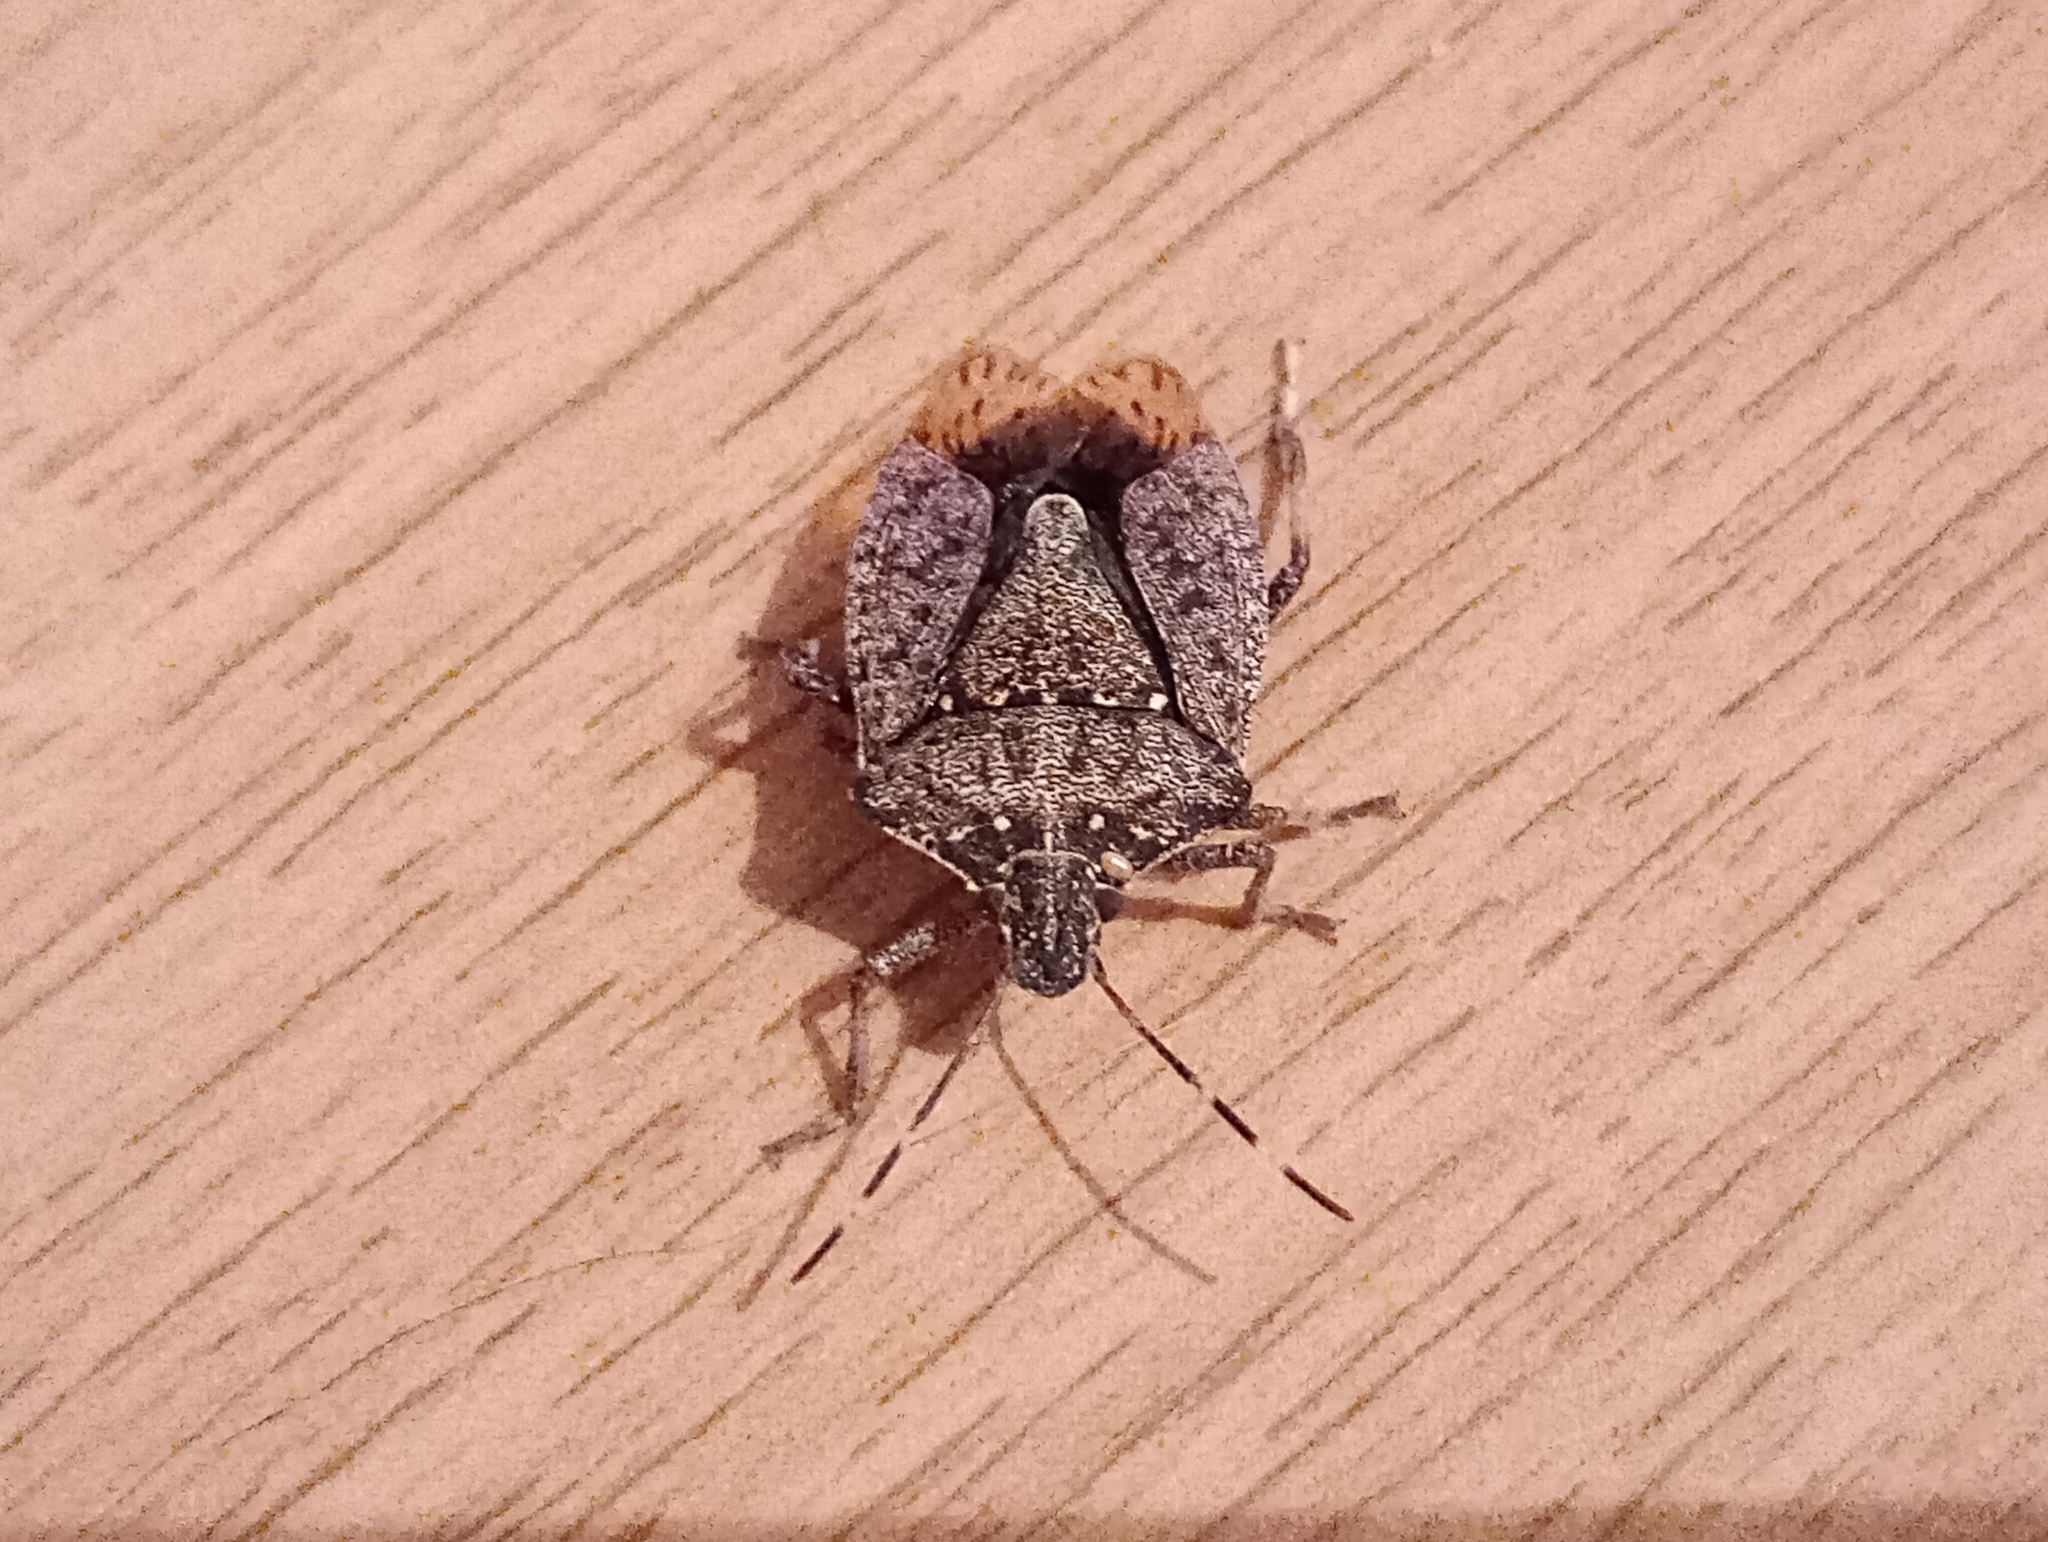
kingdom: Animalia
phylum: Arthropoda
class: Insecta
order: Hemiptera
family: Pentatomidae
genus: Halyomorpha
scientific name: Halyomorpha halys
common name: Brown marmorated stink bug
